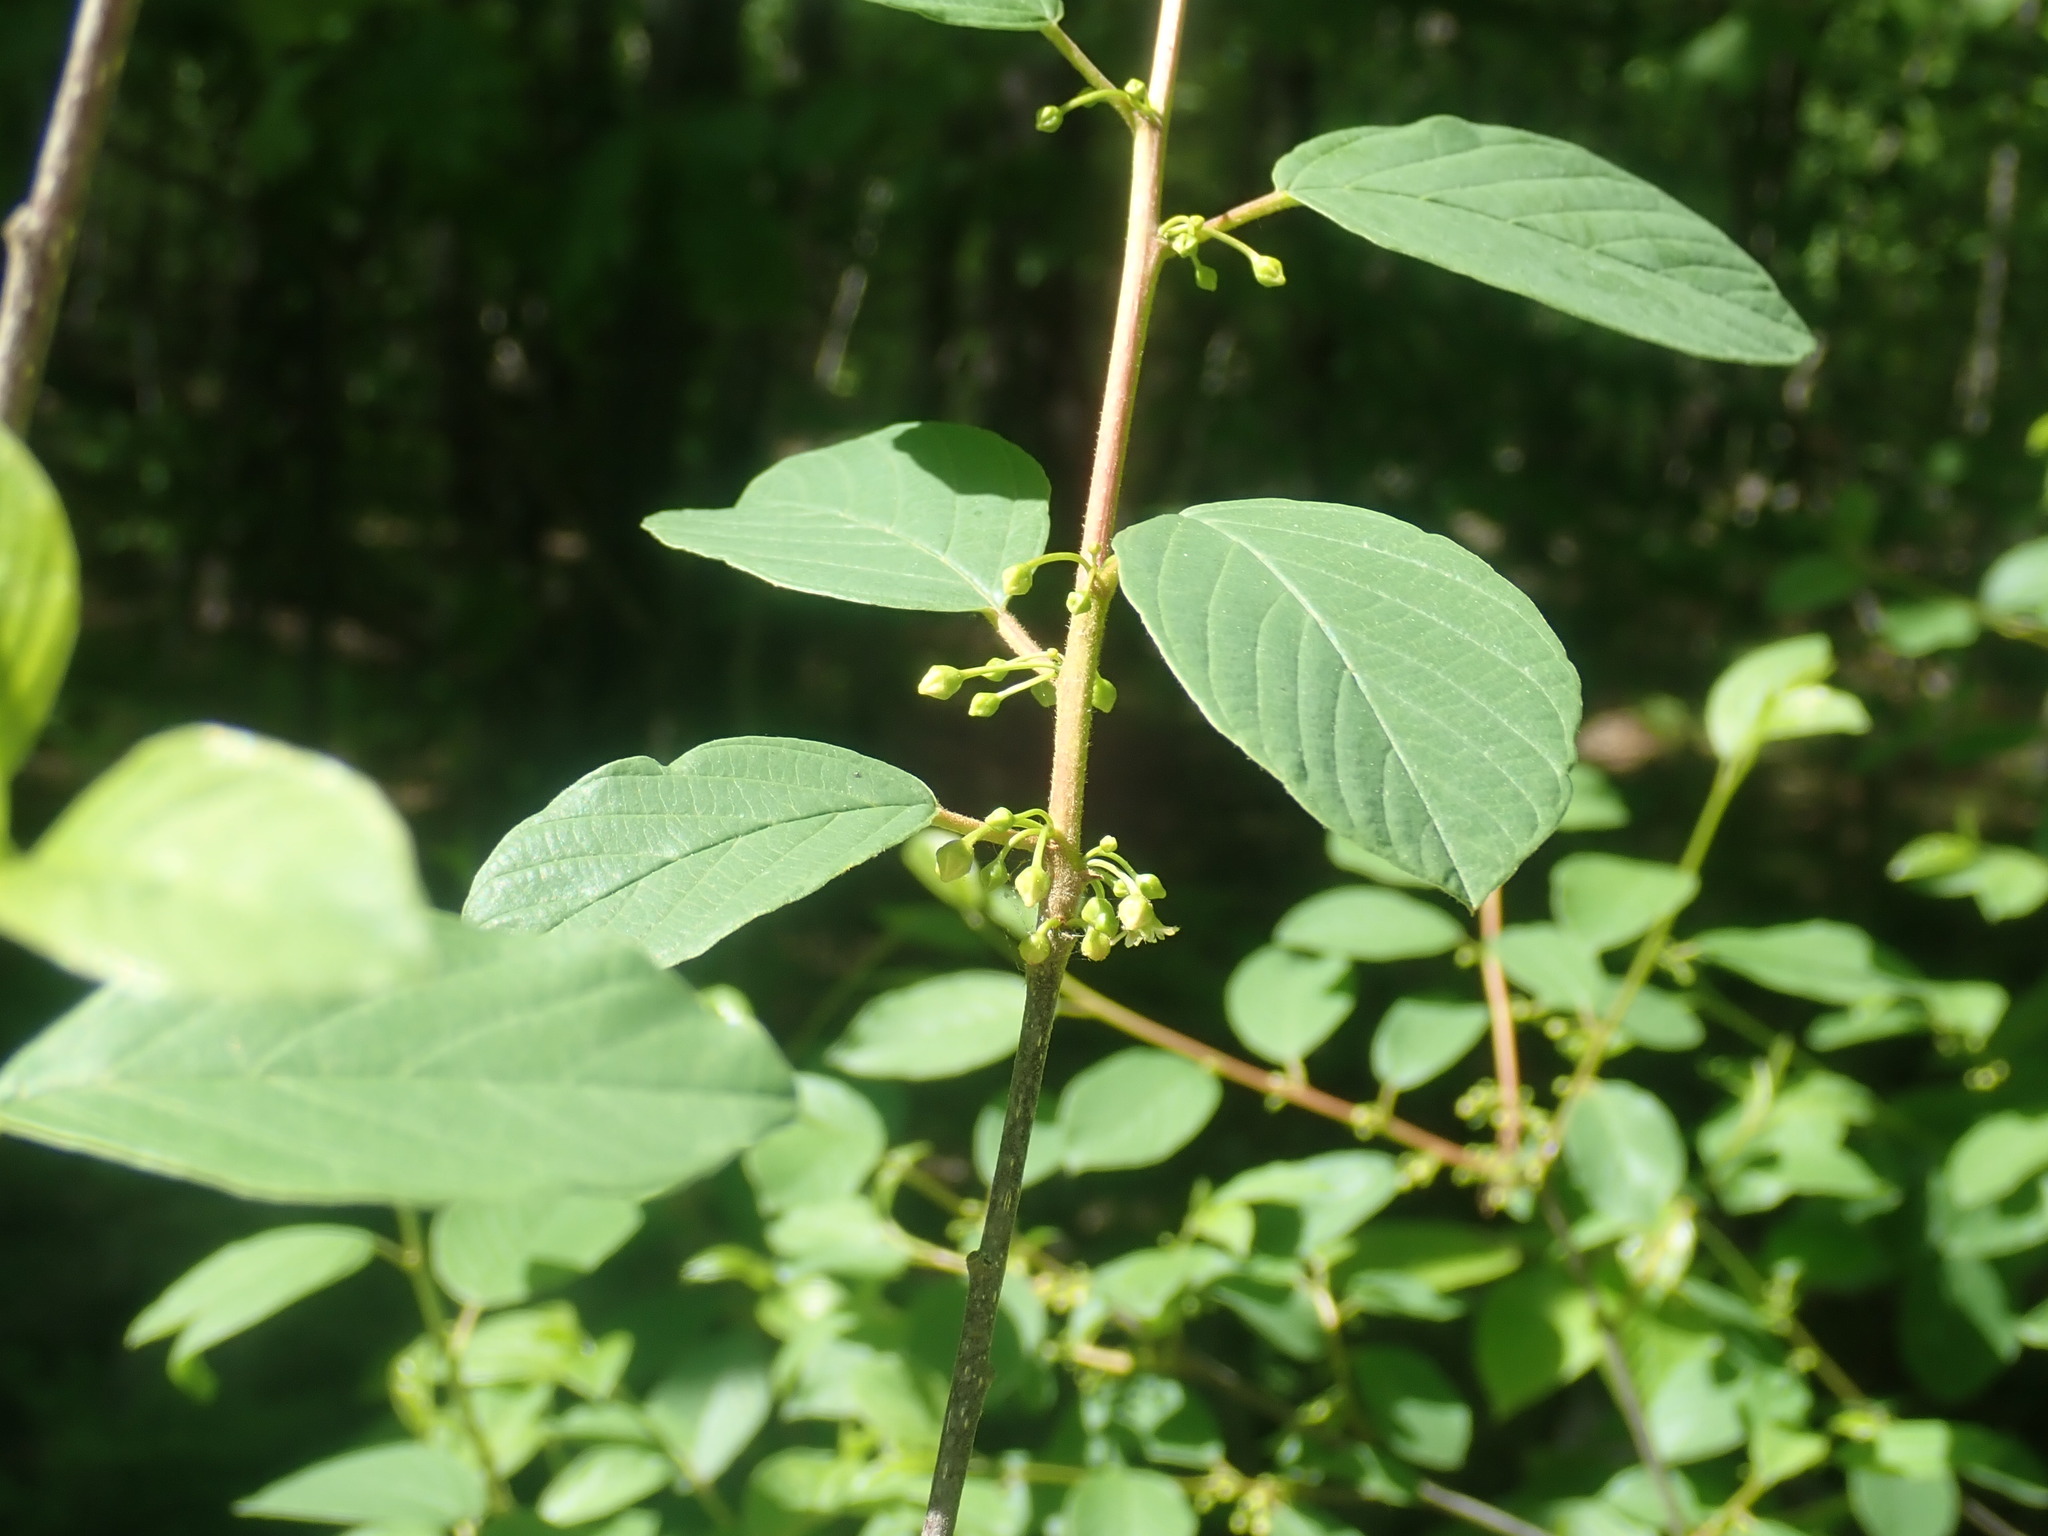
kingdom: Plantae
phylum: Tracheophyta
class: Magnoliopsida
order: Rosales
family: Rhamnaceae
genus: Frangula
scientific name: Frangula alnus
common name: Alder buckthorn
